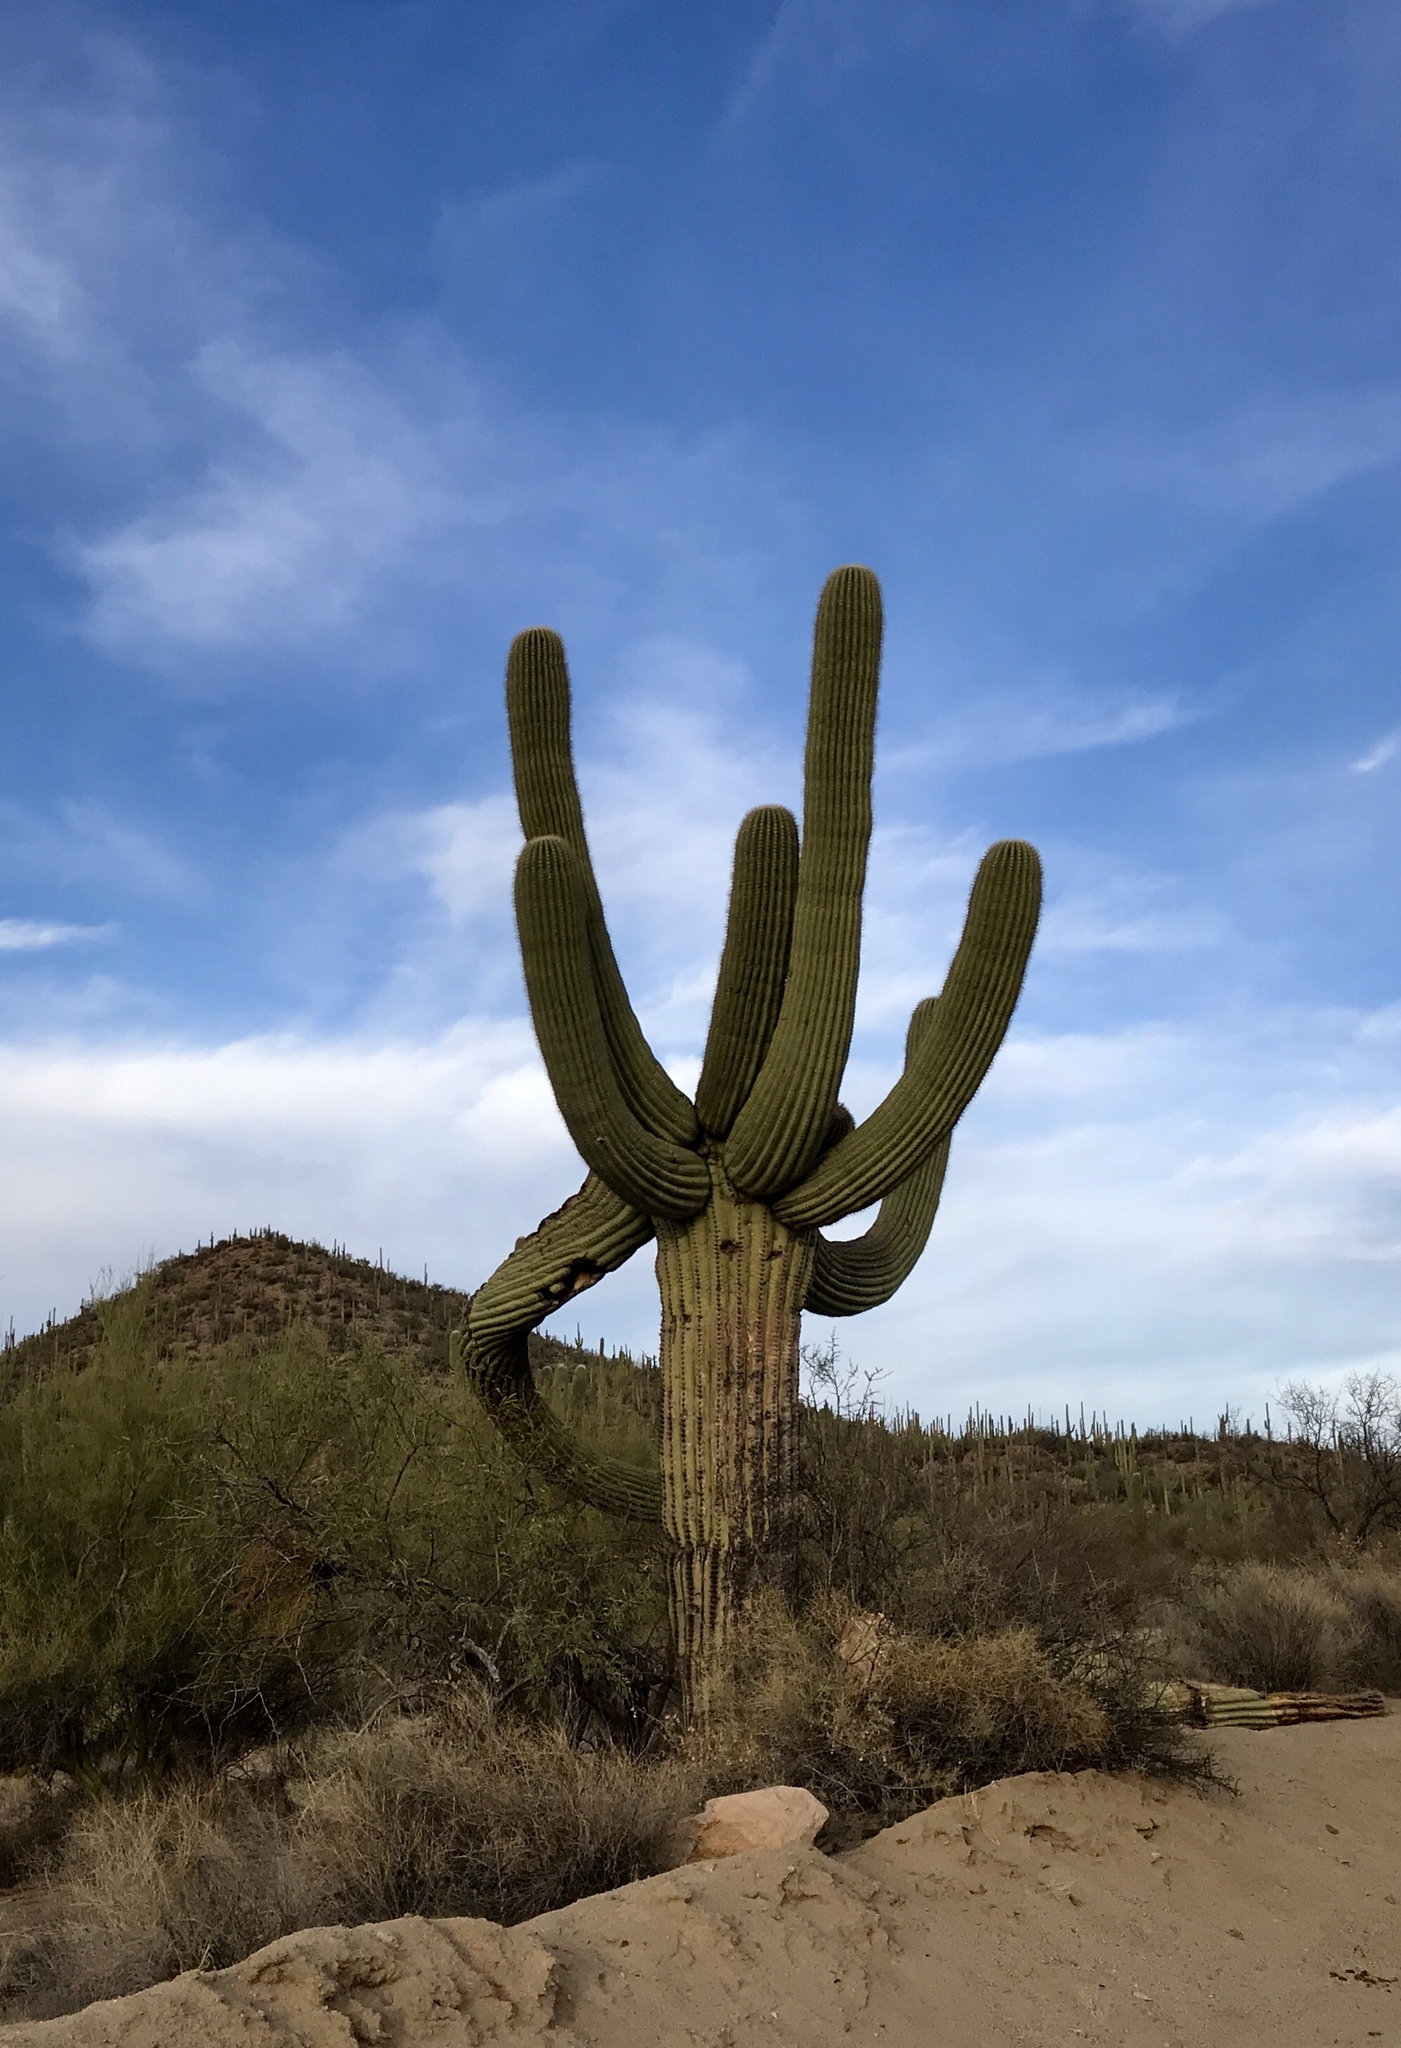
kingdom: Plantae
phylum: Tracheophyta
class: Magnoliopsida
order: Caryophyllales
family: Cactaceae
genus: Carnegiea
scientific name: Carnegiea gigantea
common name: Saguaro
